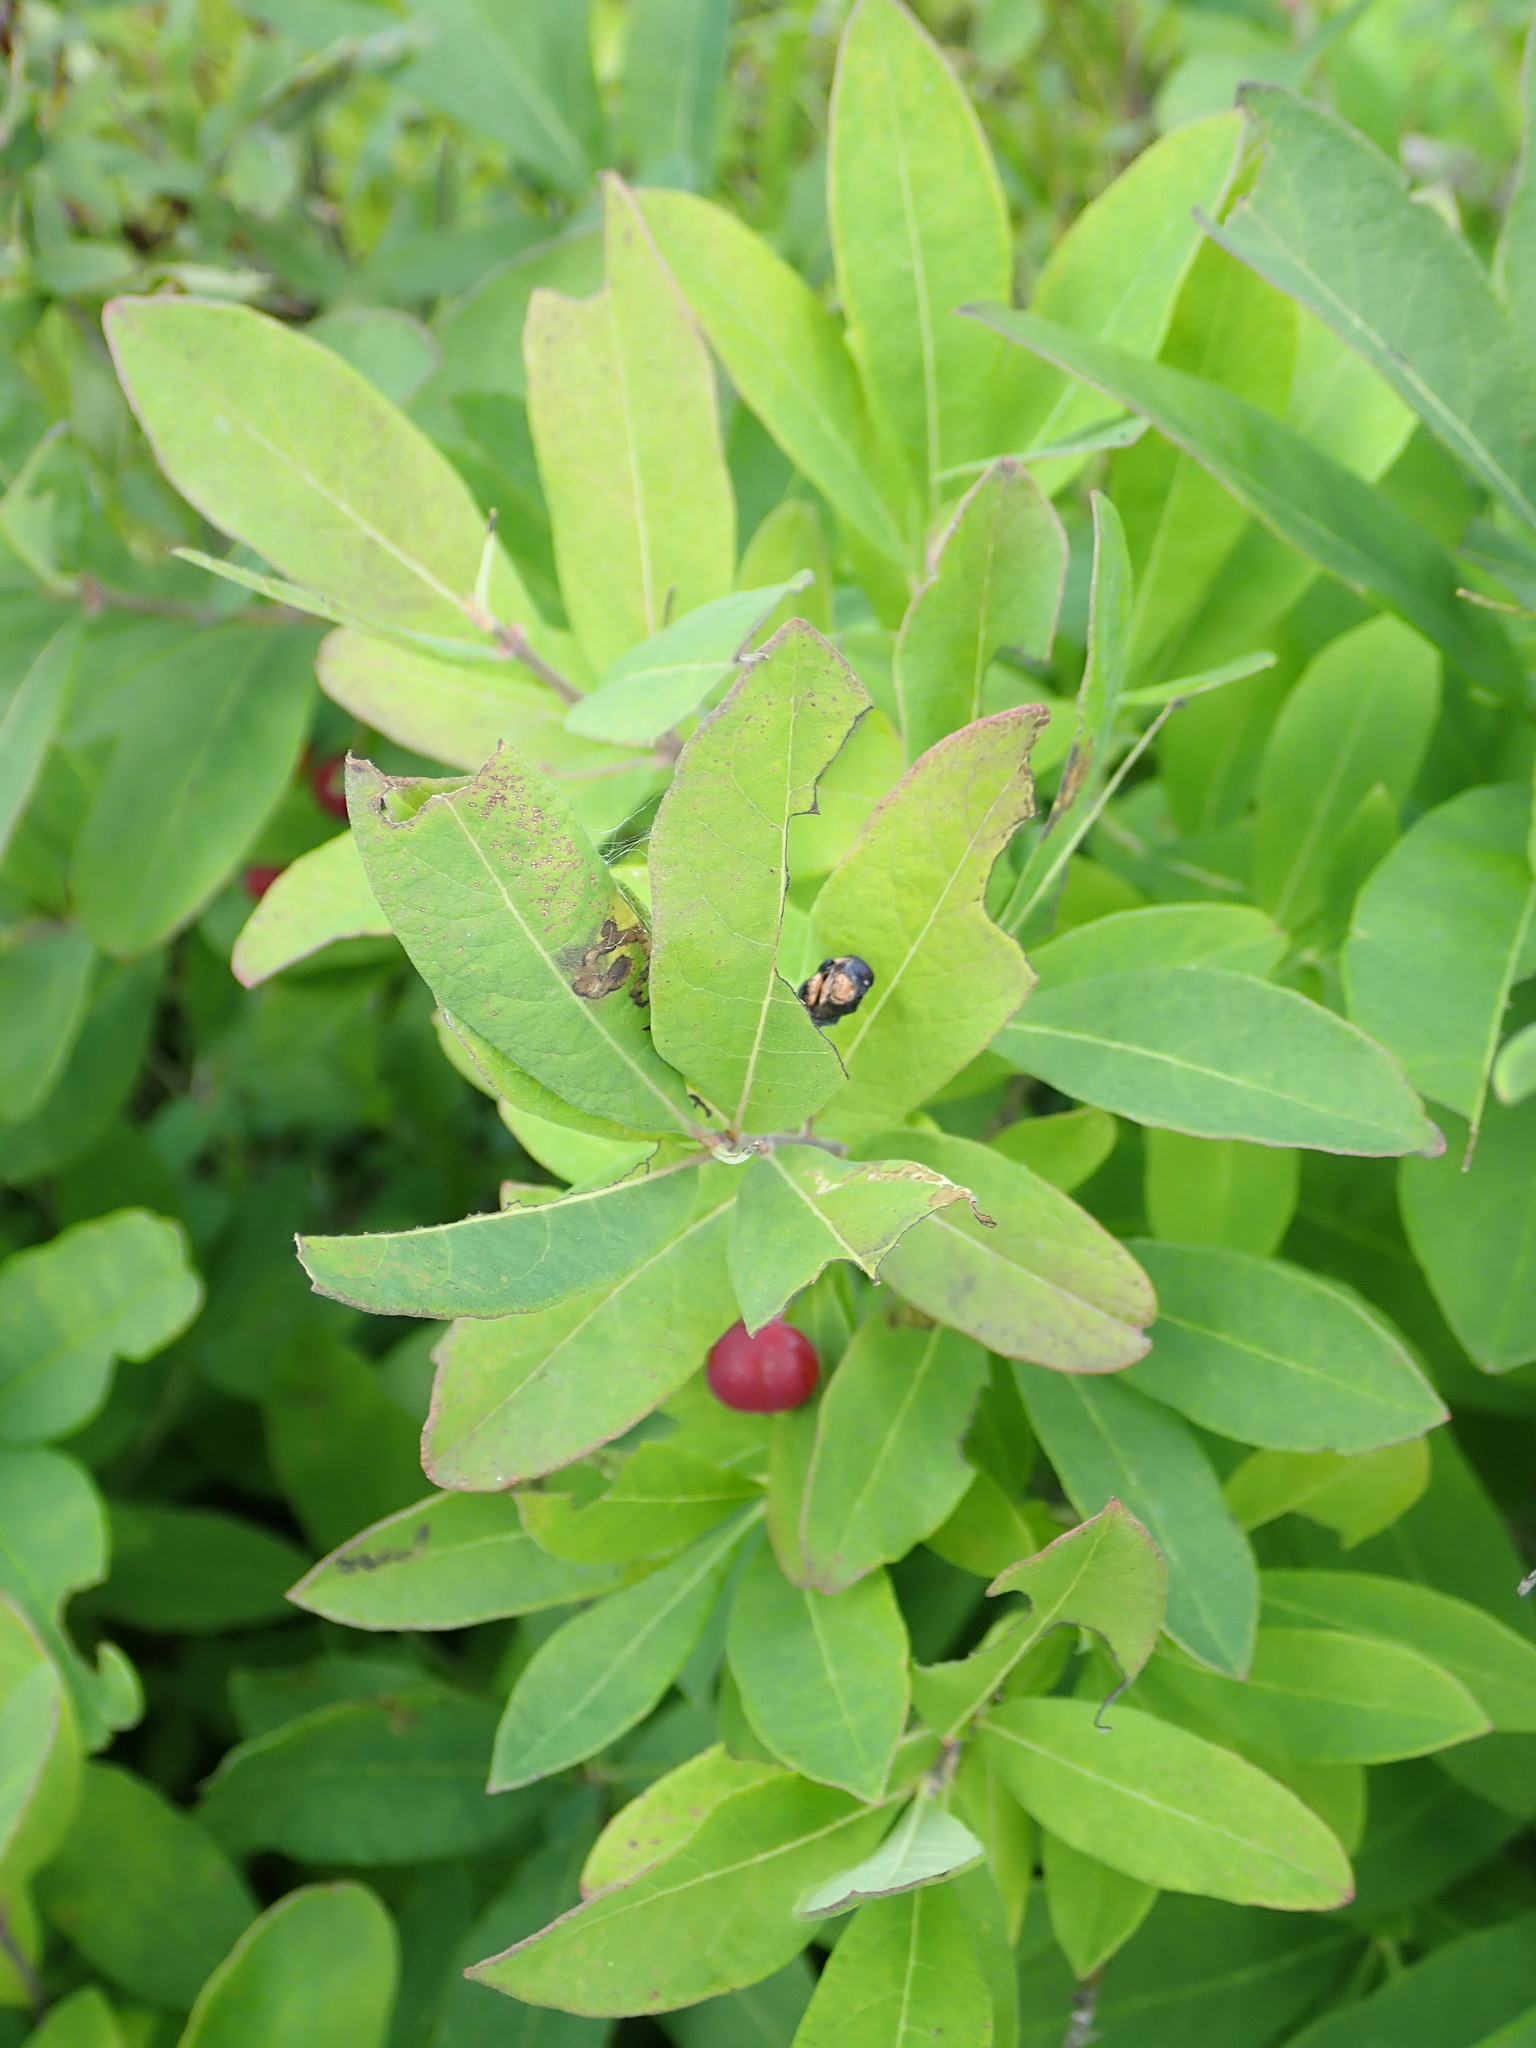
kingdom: Plantae
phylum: Tracheophyta
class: Magnoliopsida
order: Dipsacales
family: Caprifoliaceae
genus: Lonicera
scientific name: Lonicera oblongifolia
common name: Swamp fly honeysuckle
